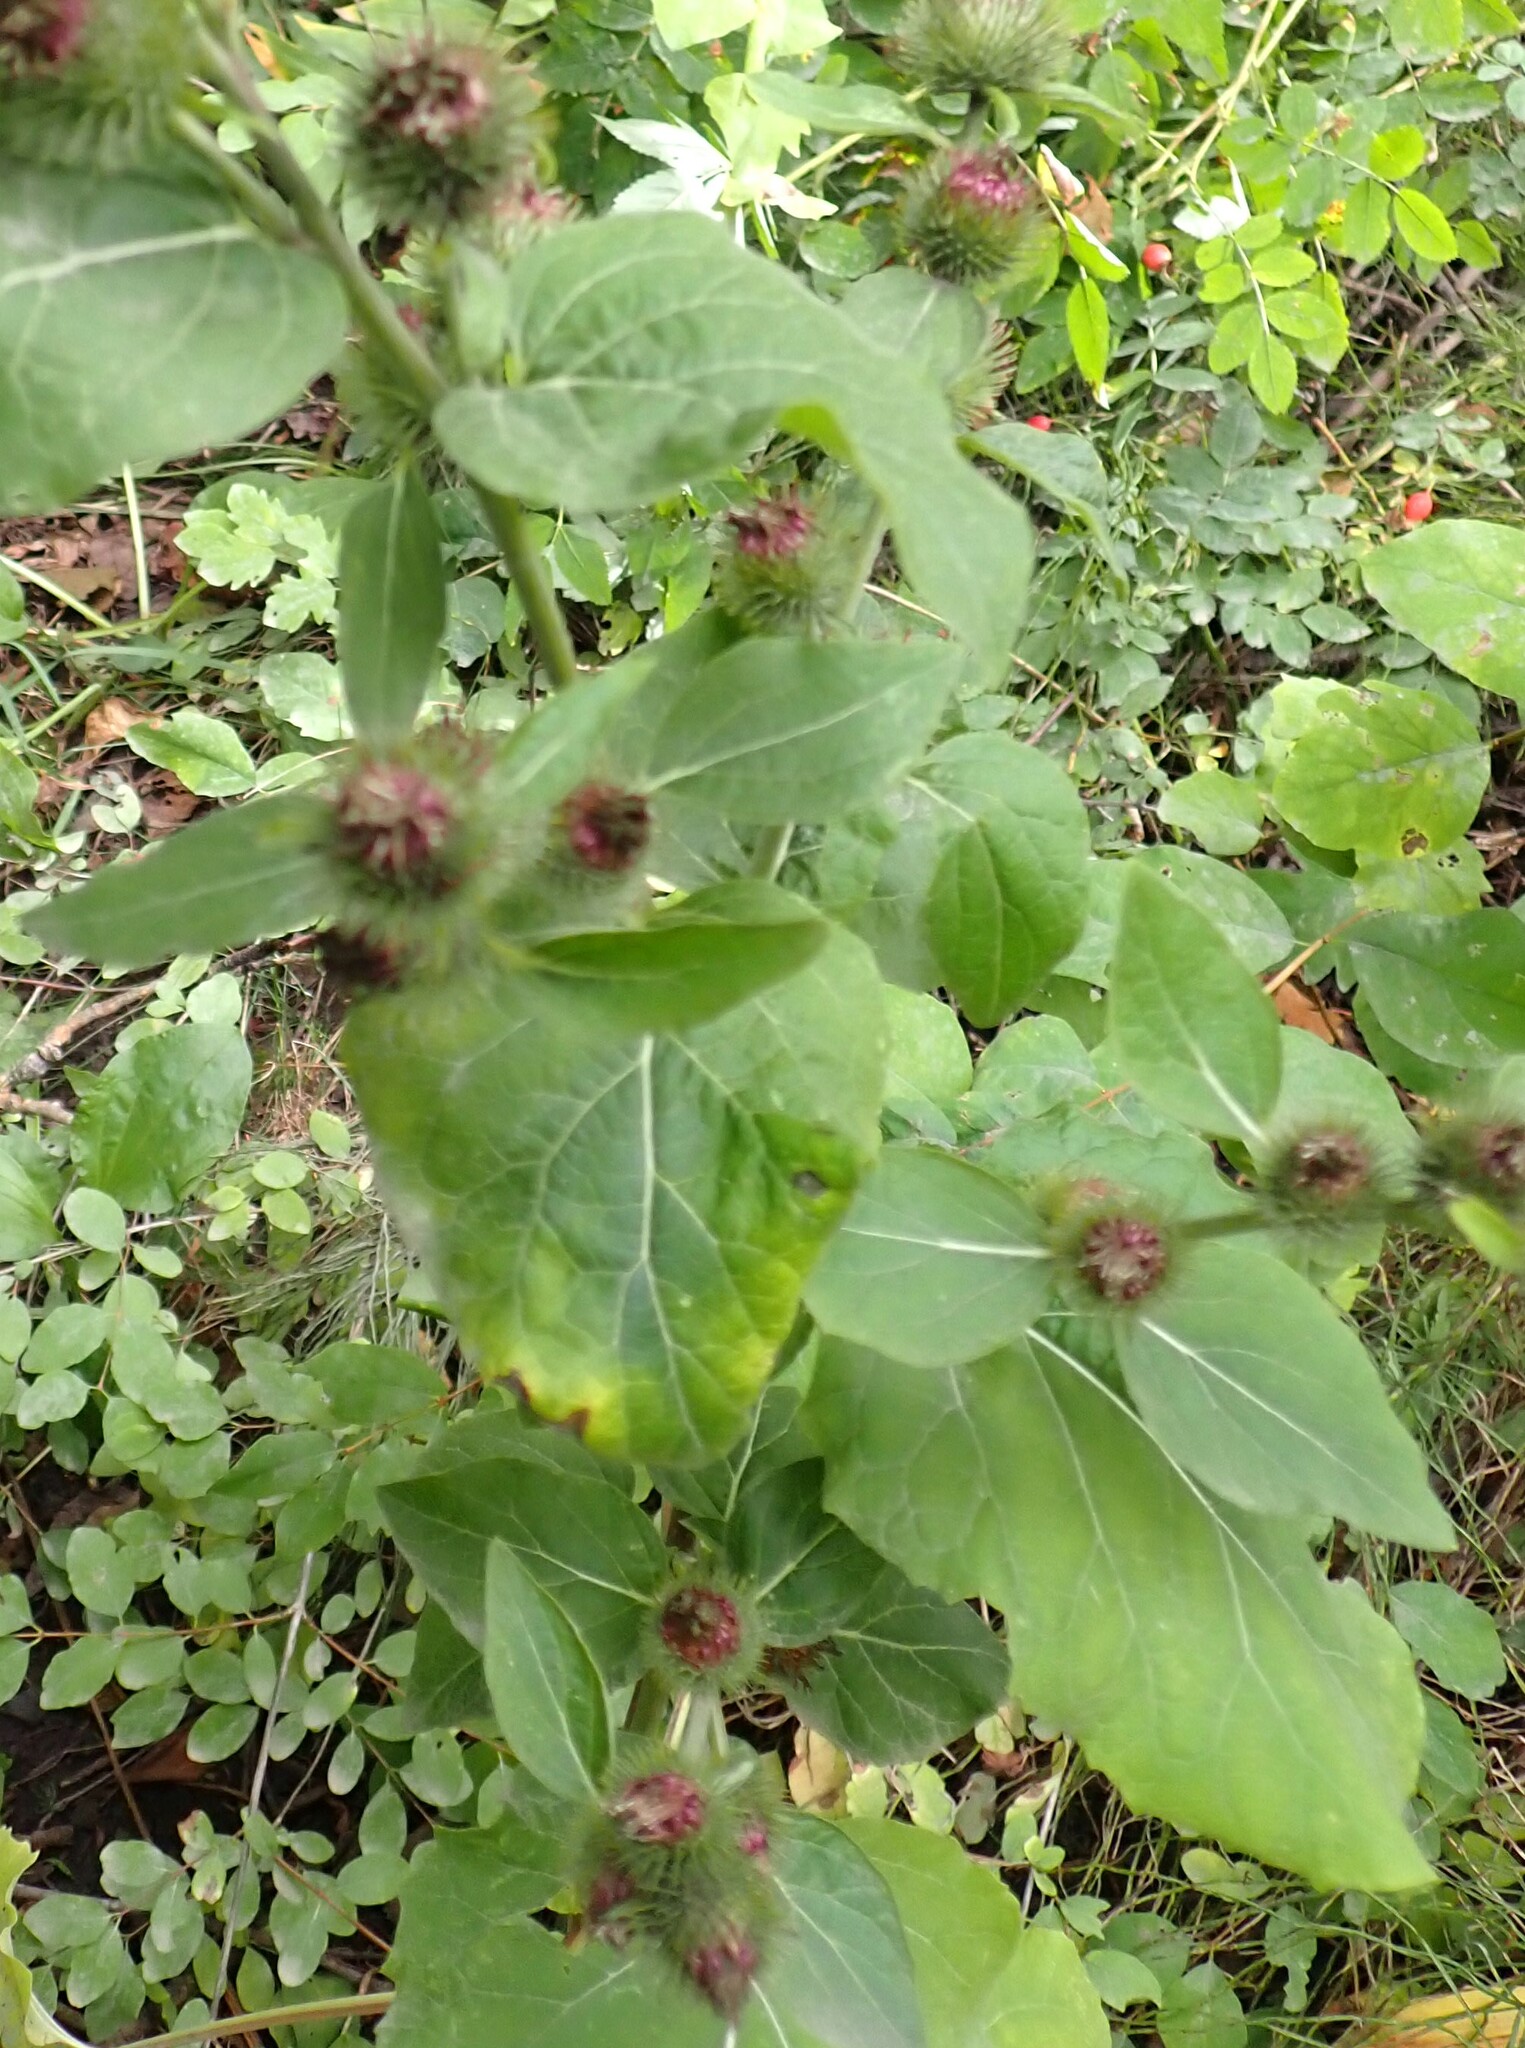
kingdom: Plantae
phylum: Tracheophyta
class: Magnoliopsida
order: Asterales
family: Asteraceae
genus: Arctium
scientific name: Arctium minus
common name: Lesser burdock
